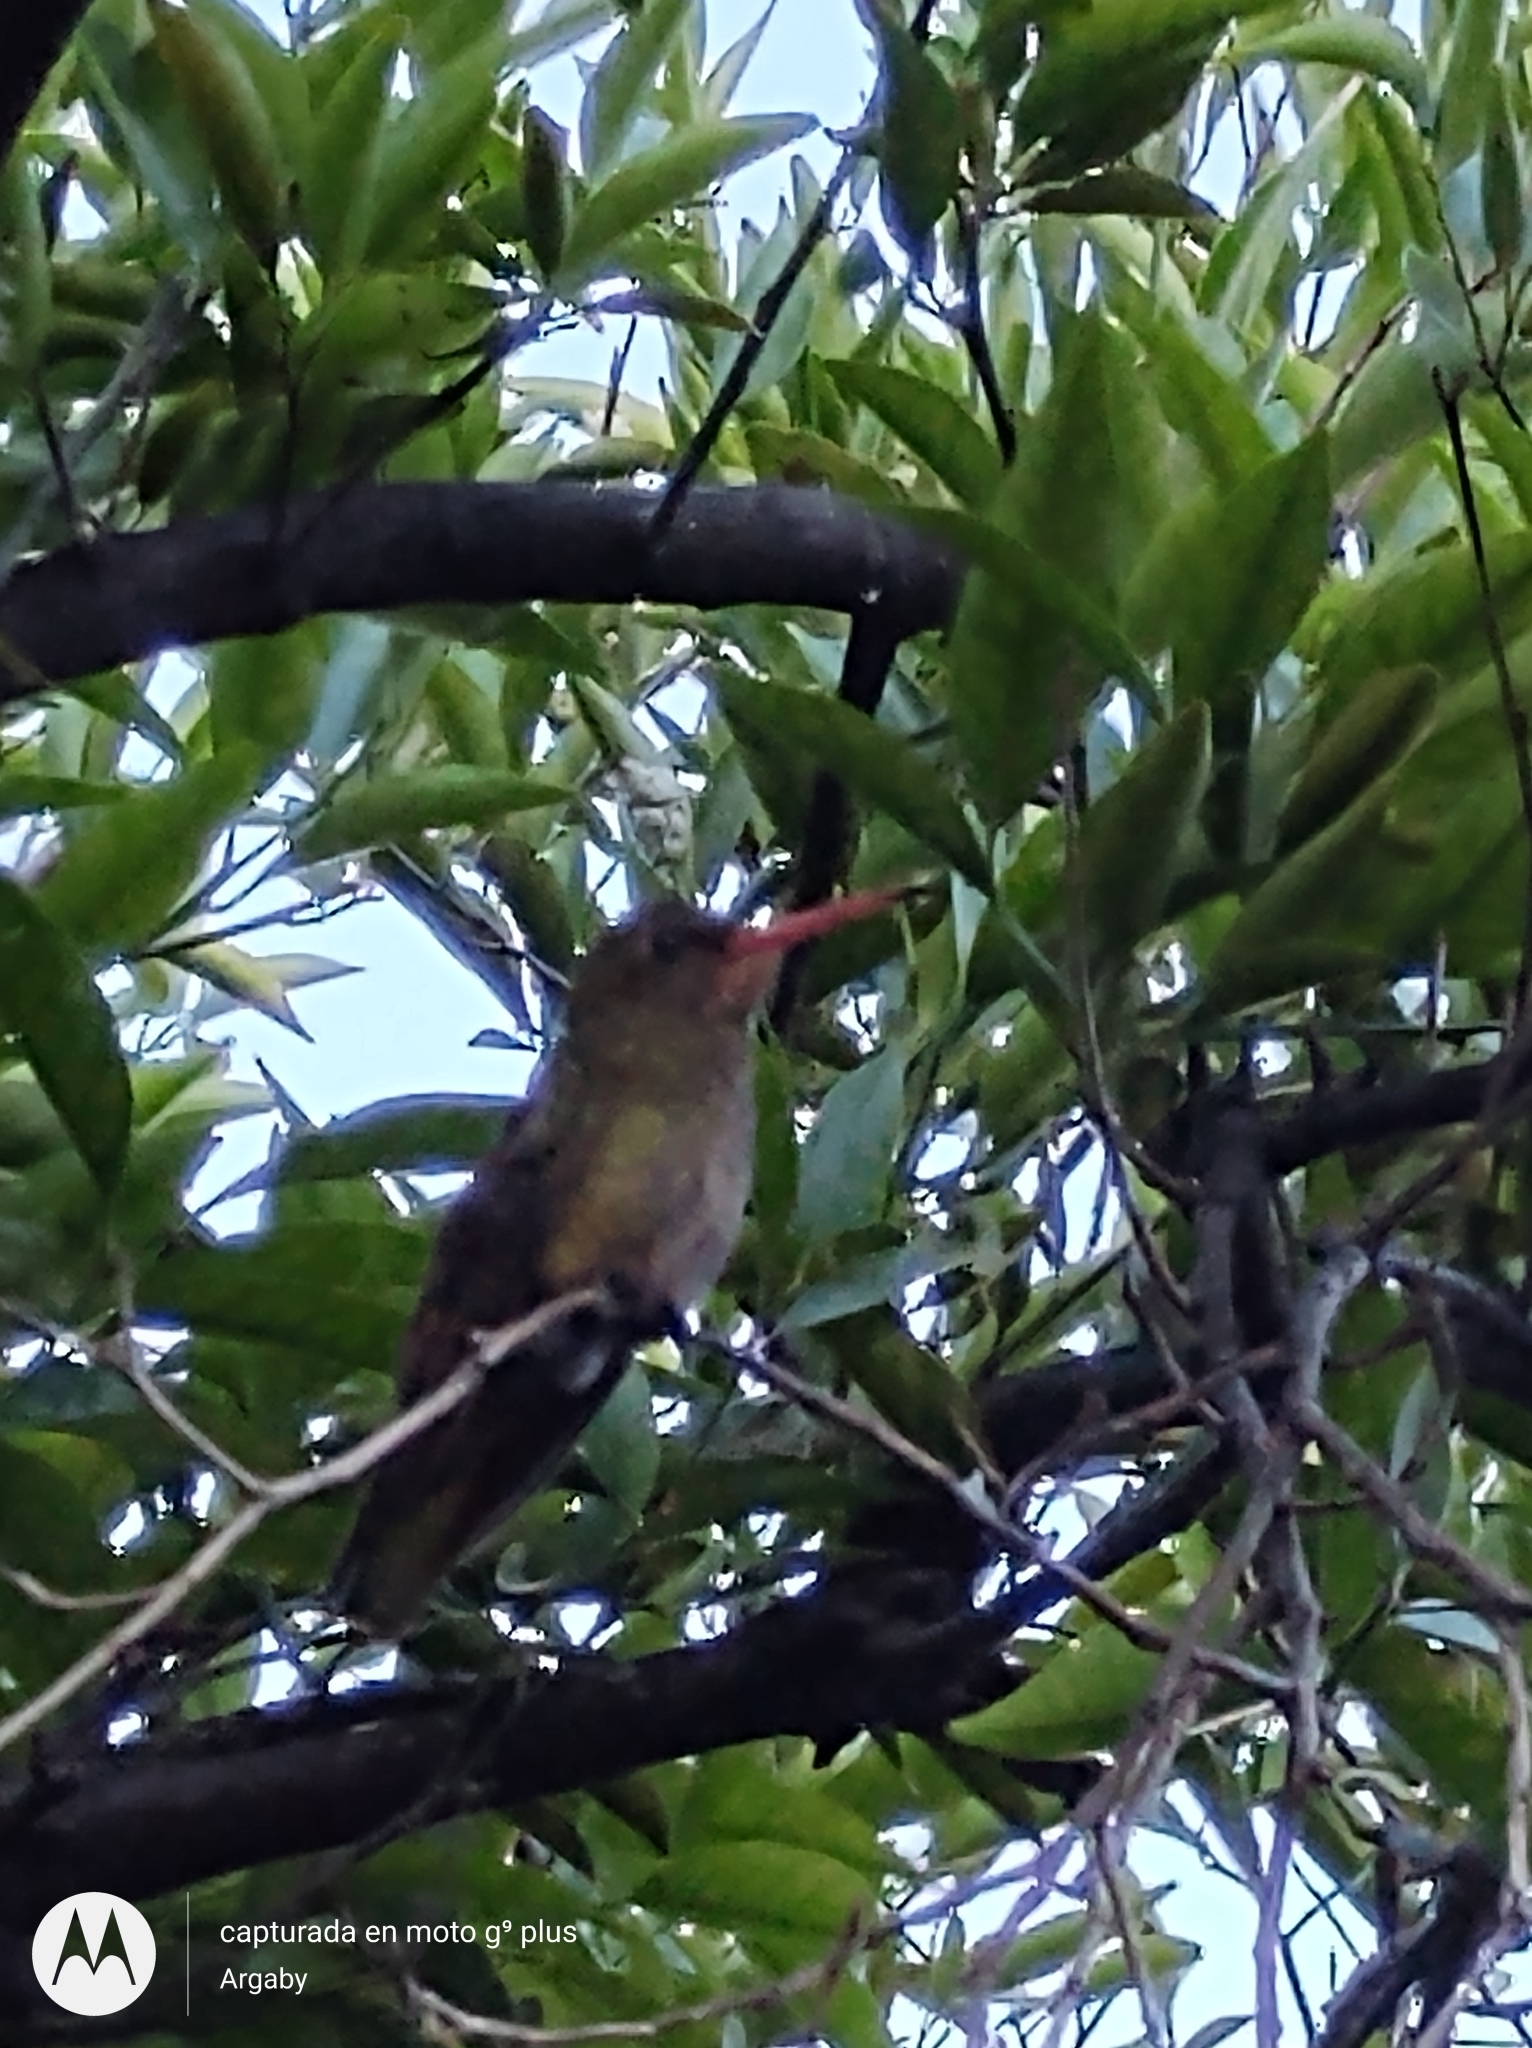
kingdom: Animalia
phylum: Chordata
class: Aves
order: Apodiformes
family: Trochilidae
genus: Hylocharis
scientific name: Hylocharis chrysura
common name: Gilded sapphire
